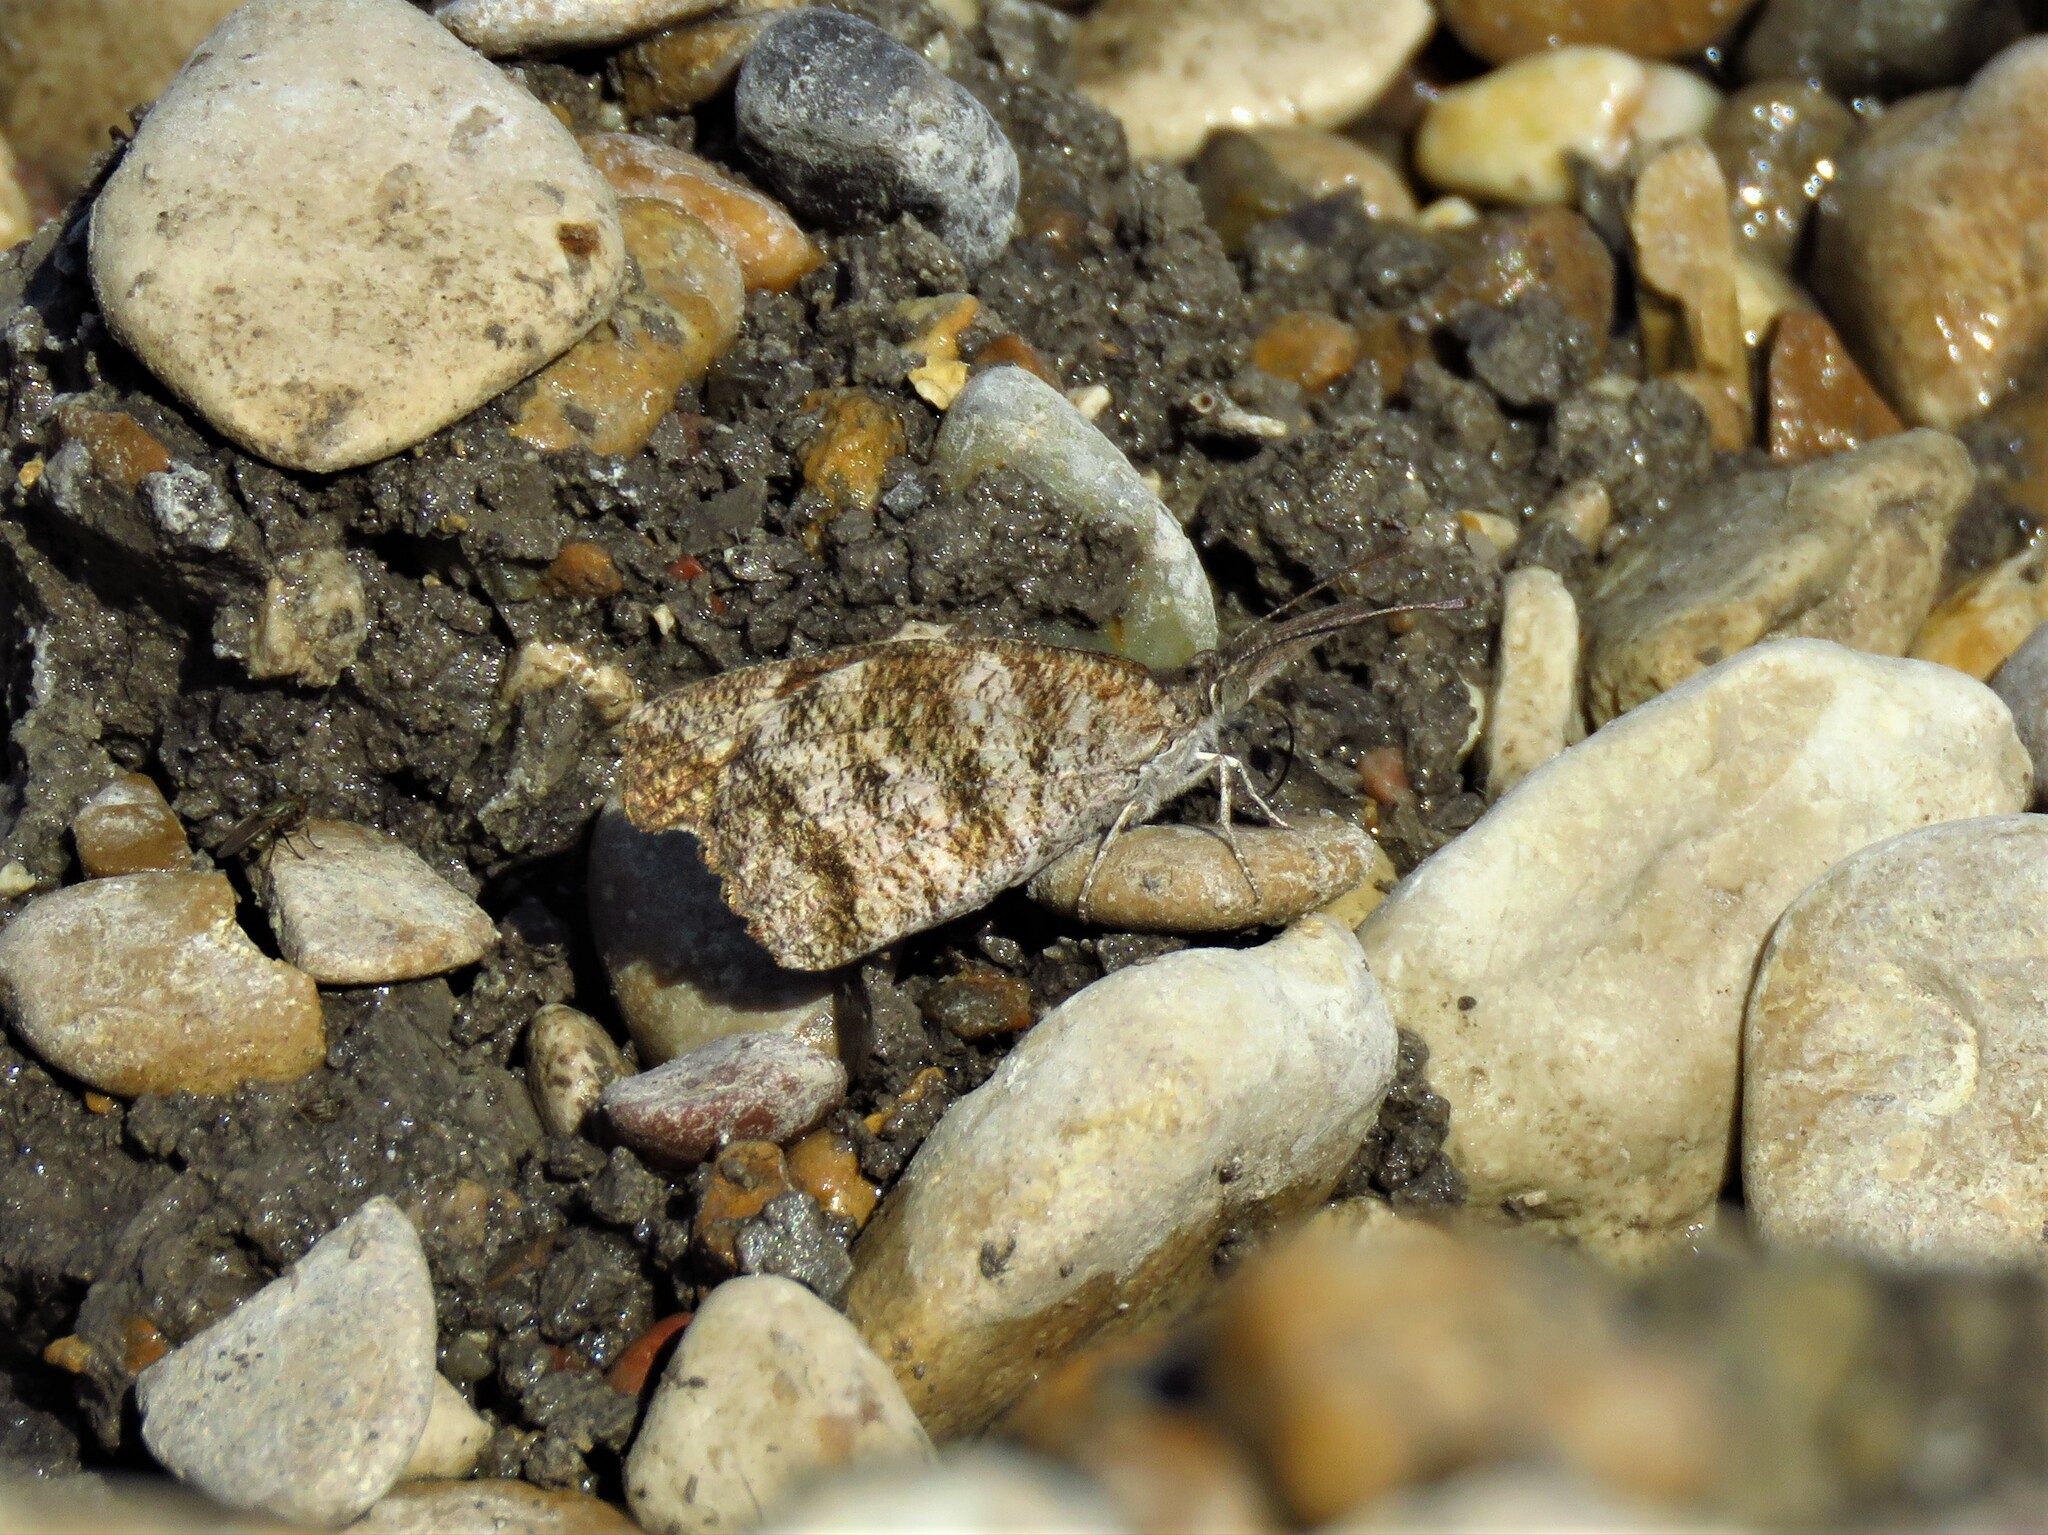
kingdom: Animalia
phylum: Arthropoda
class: Insecta
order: Lepidoptera
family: Nymphalidae
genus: Libytheana
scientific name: Libytheana carinenta
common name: American snout
